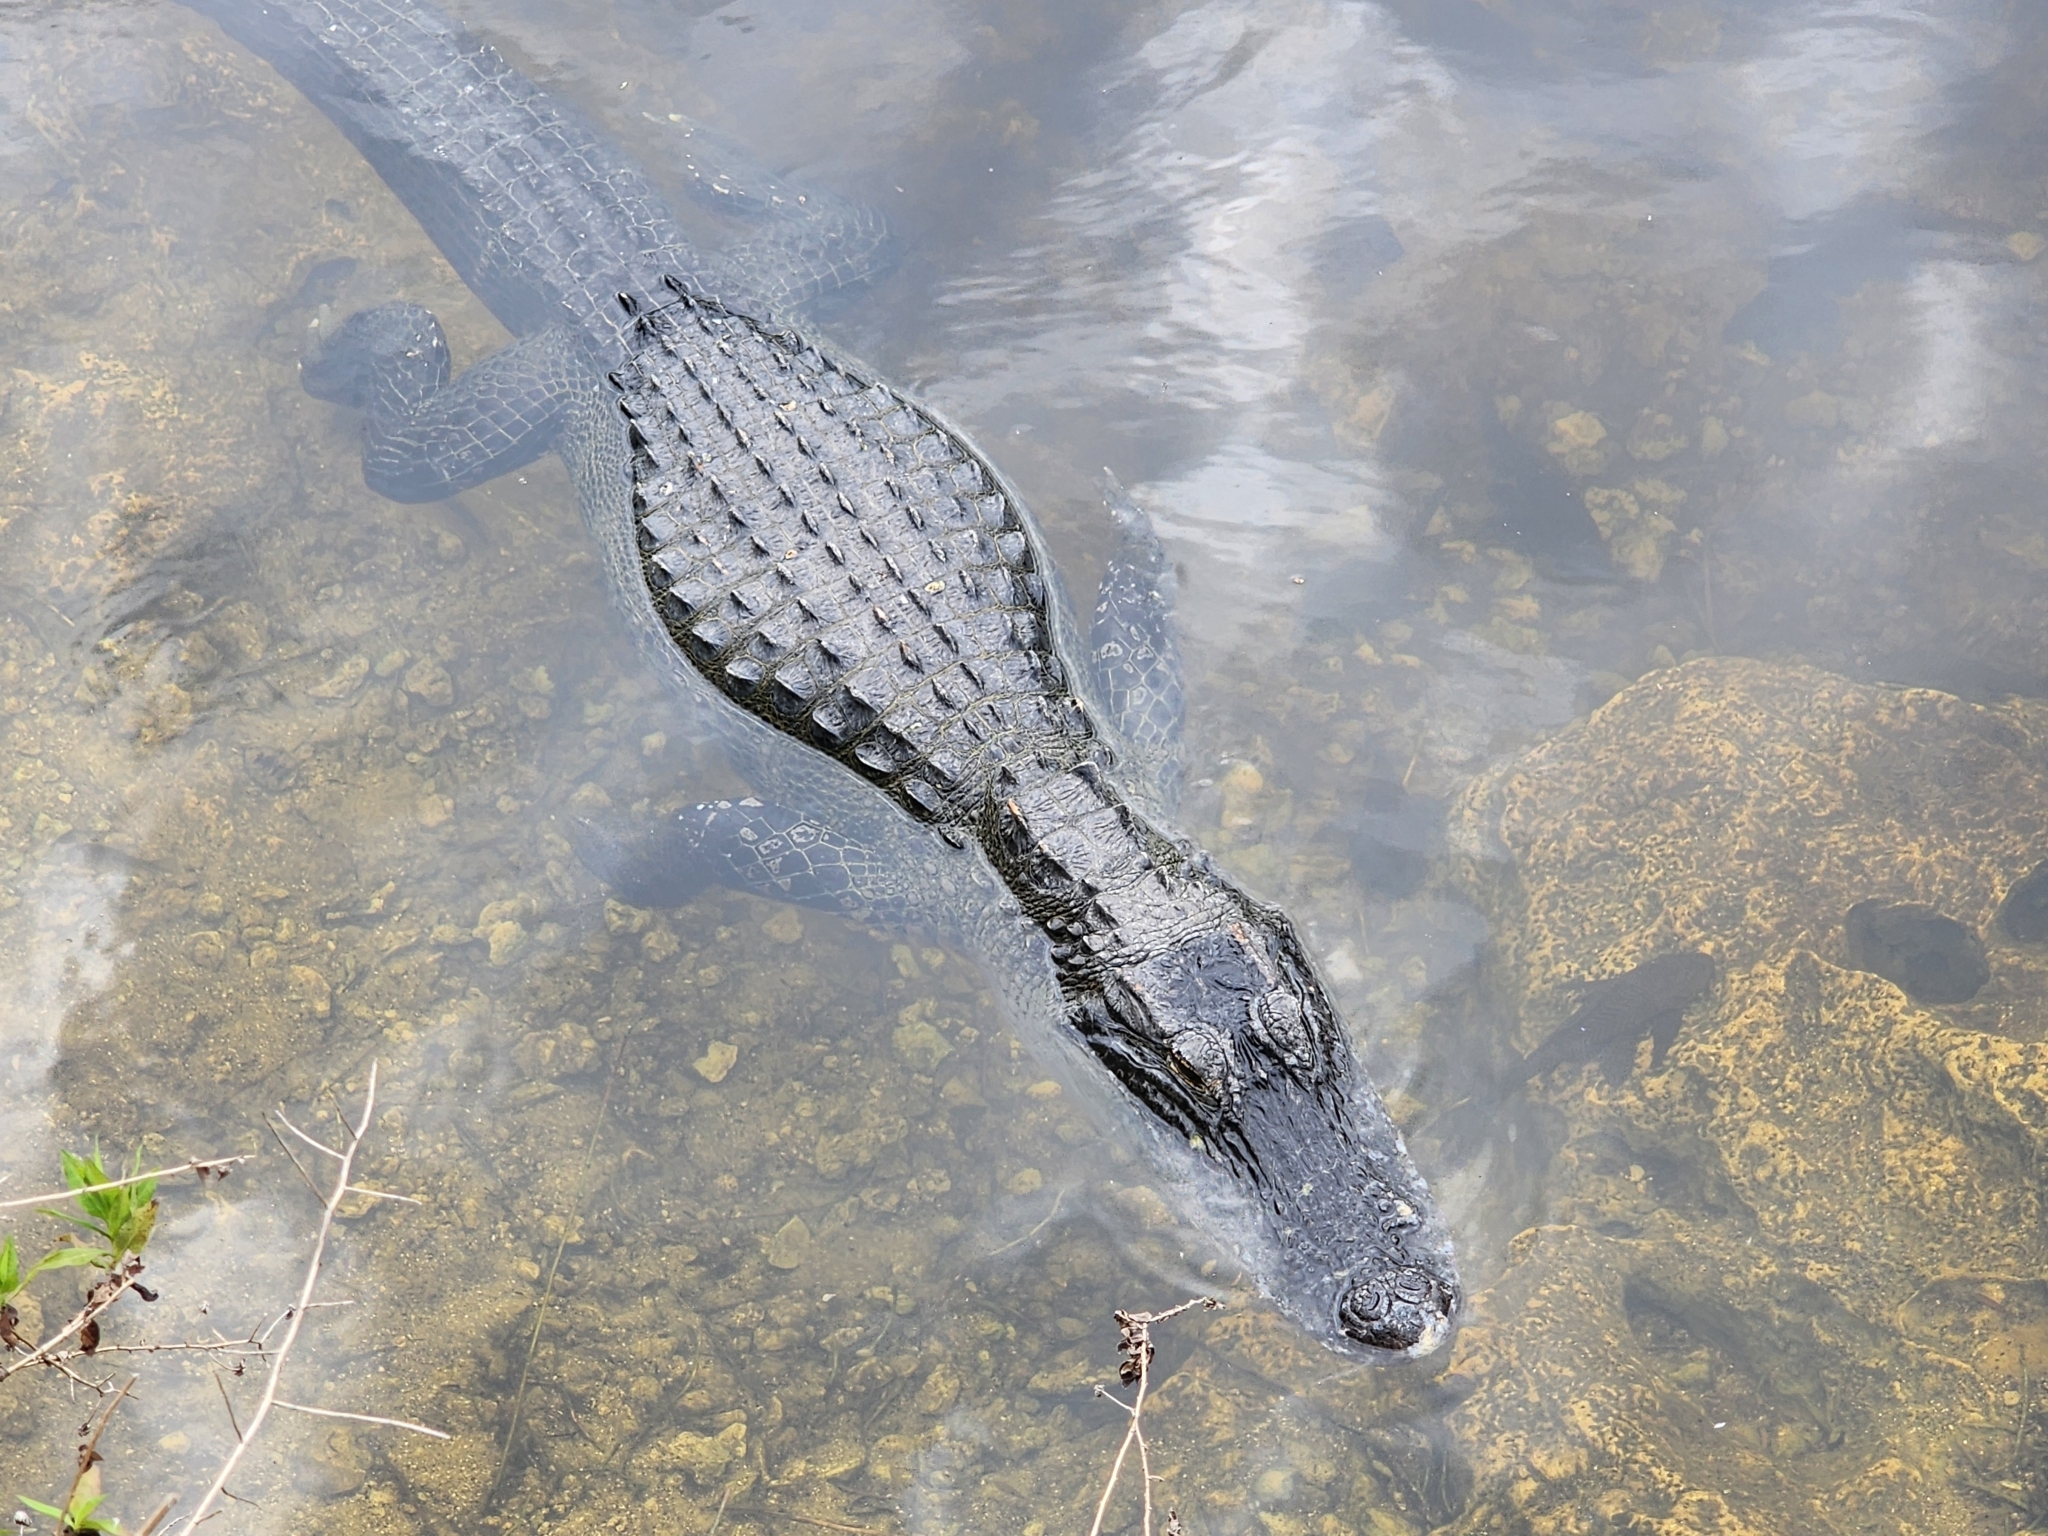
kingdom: Animalia
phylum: Chordata
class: Crocodylia
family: Alligatoridae
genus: Alligator
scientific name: Alligator mississippiensis
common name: American alligator
